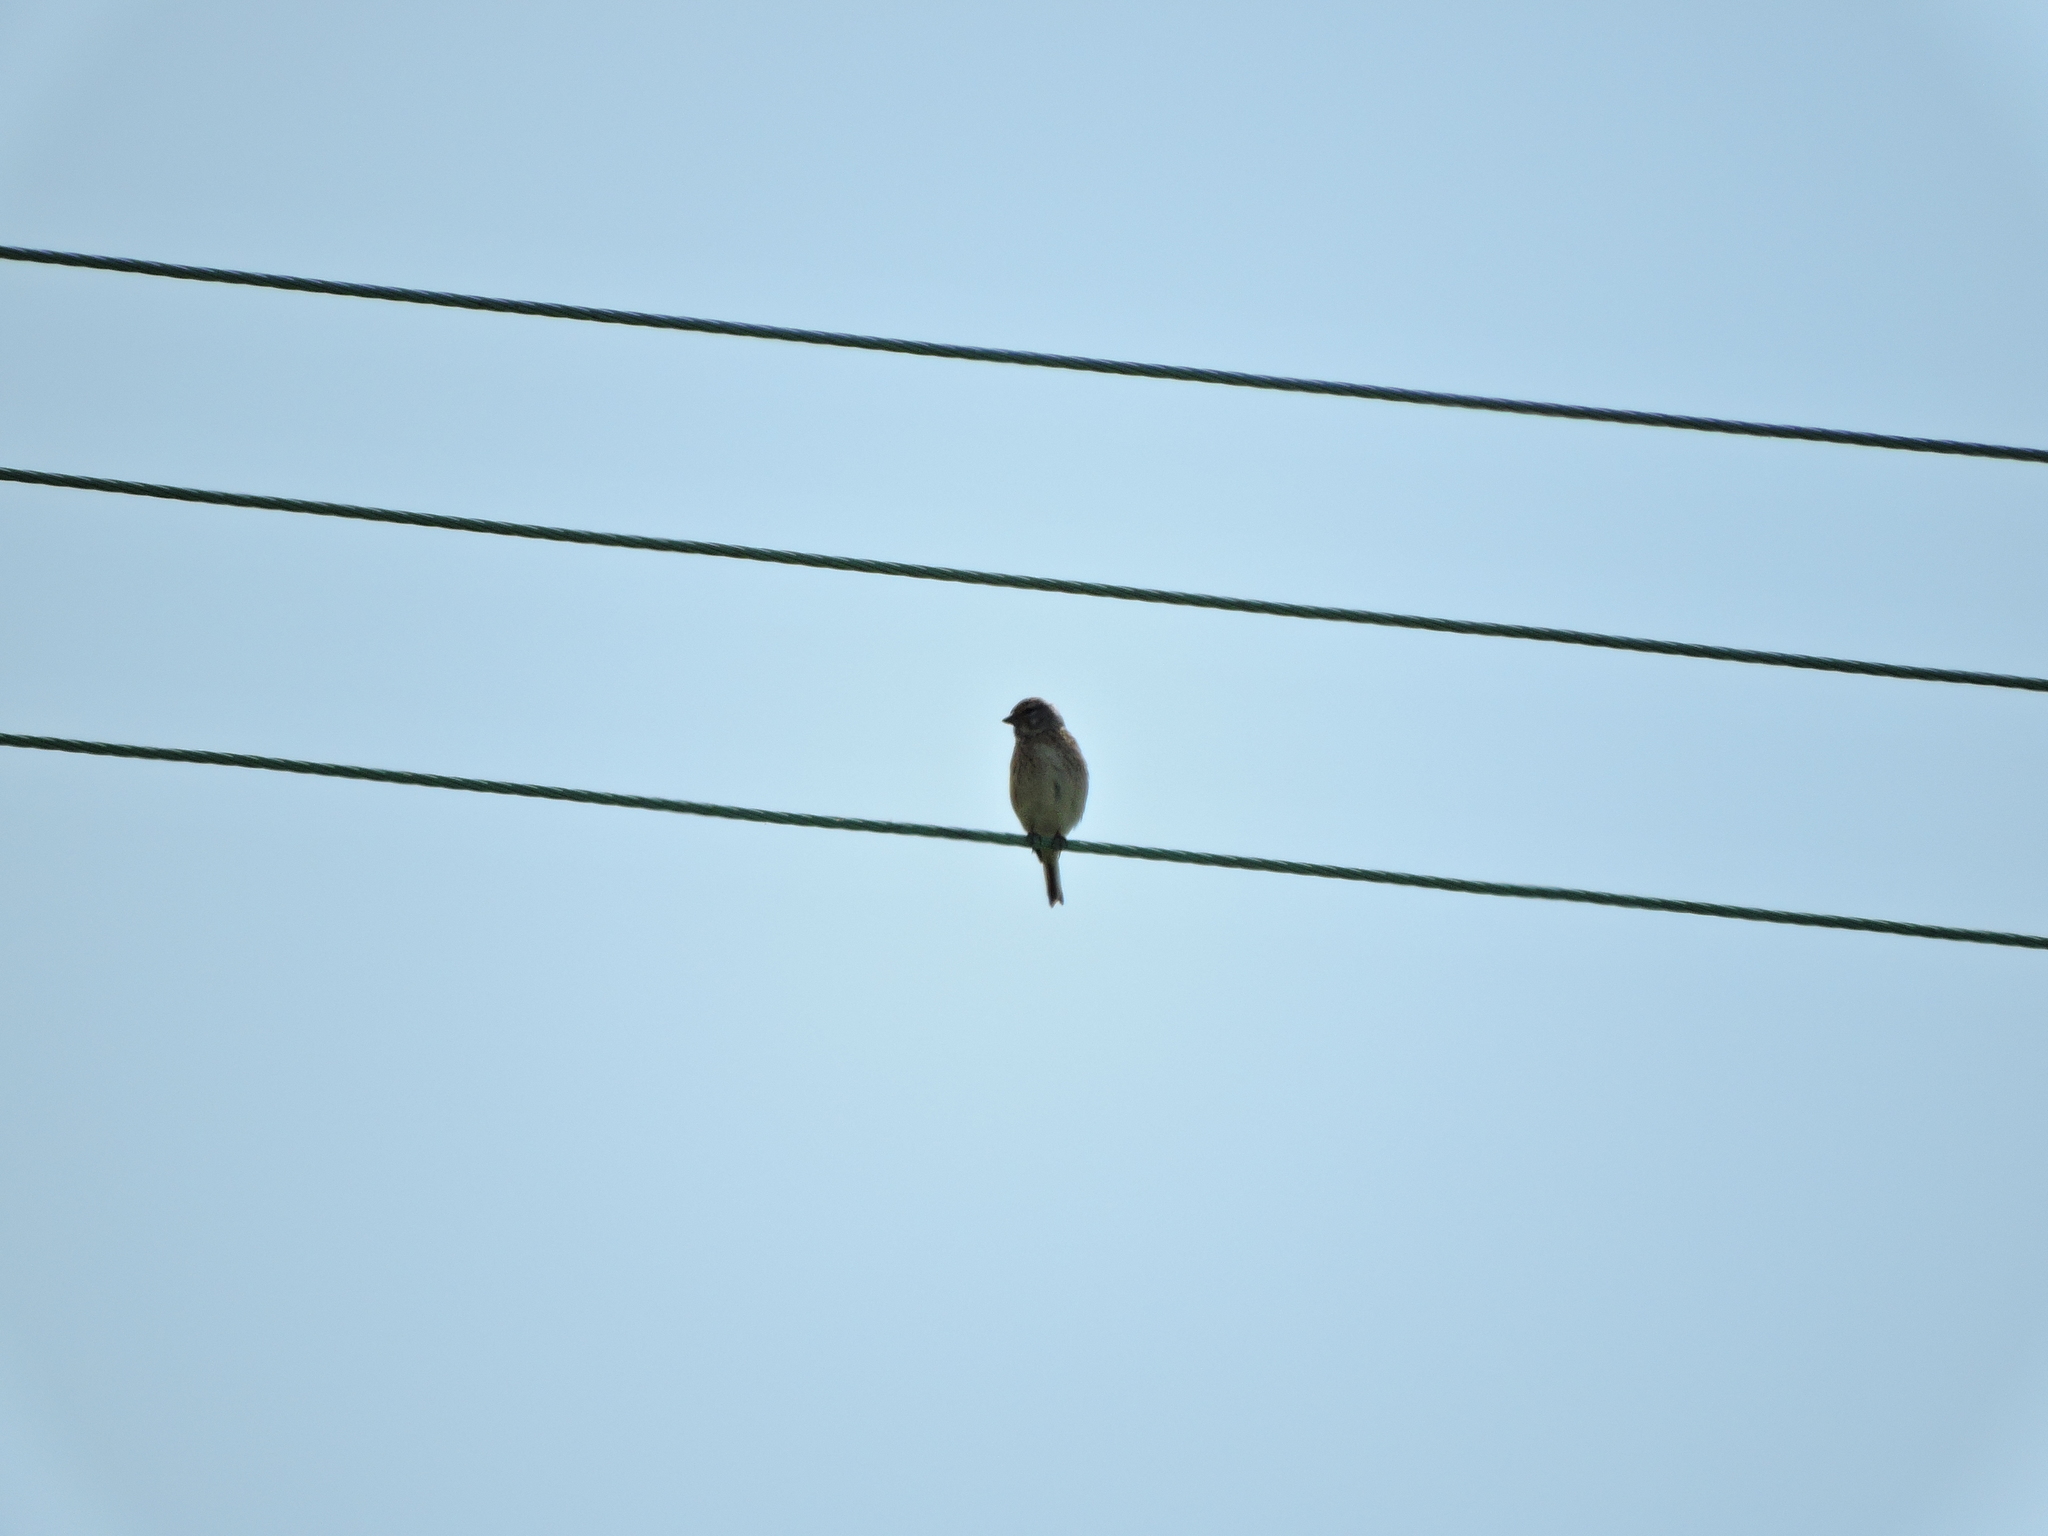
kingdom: Animalia
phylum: Chordata
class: Aves
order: Passeriformes
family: Fringillidae
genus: Linaria
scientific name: Linaria cannabina
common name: Common linnet
